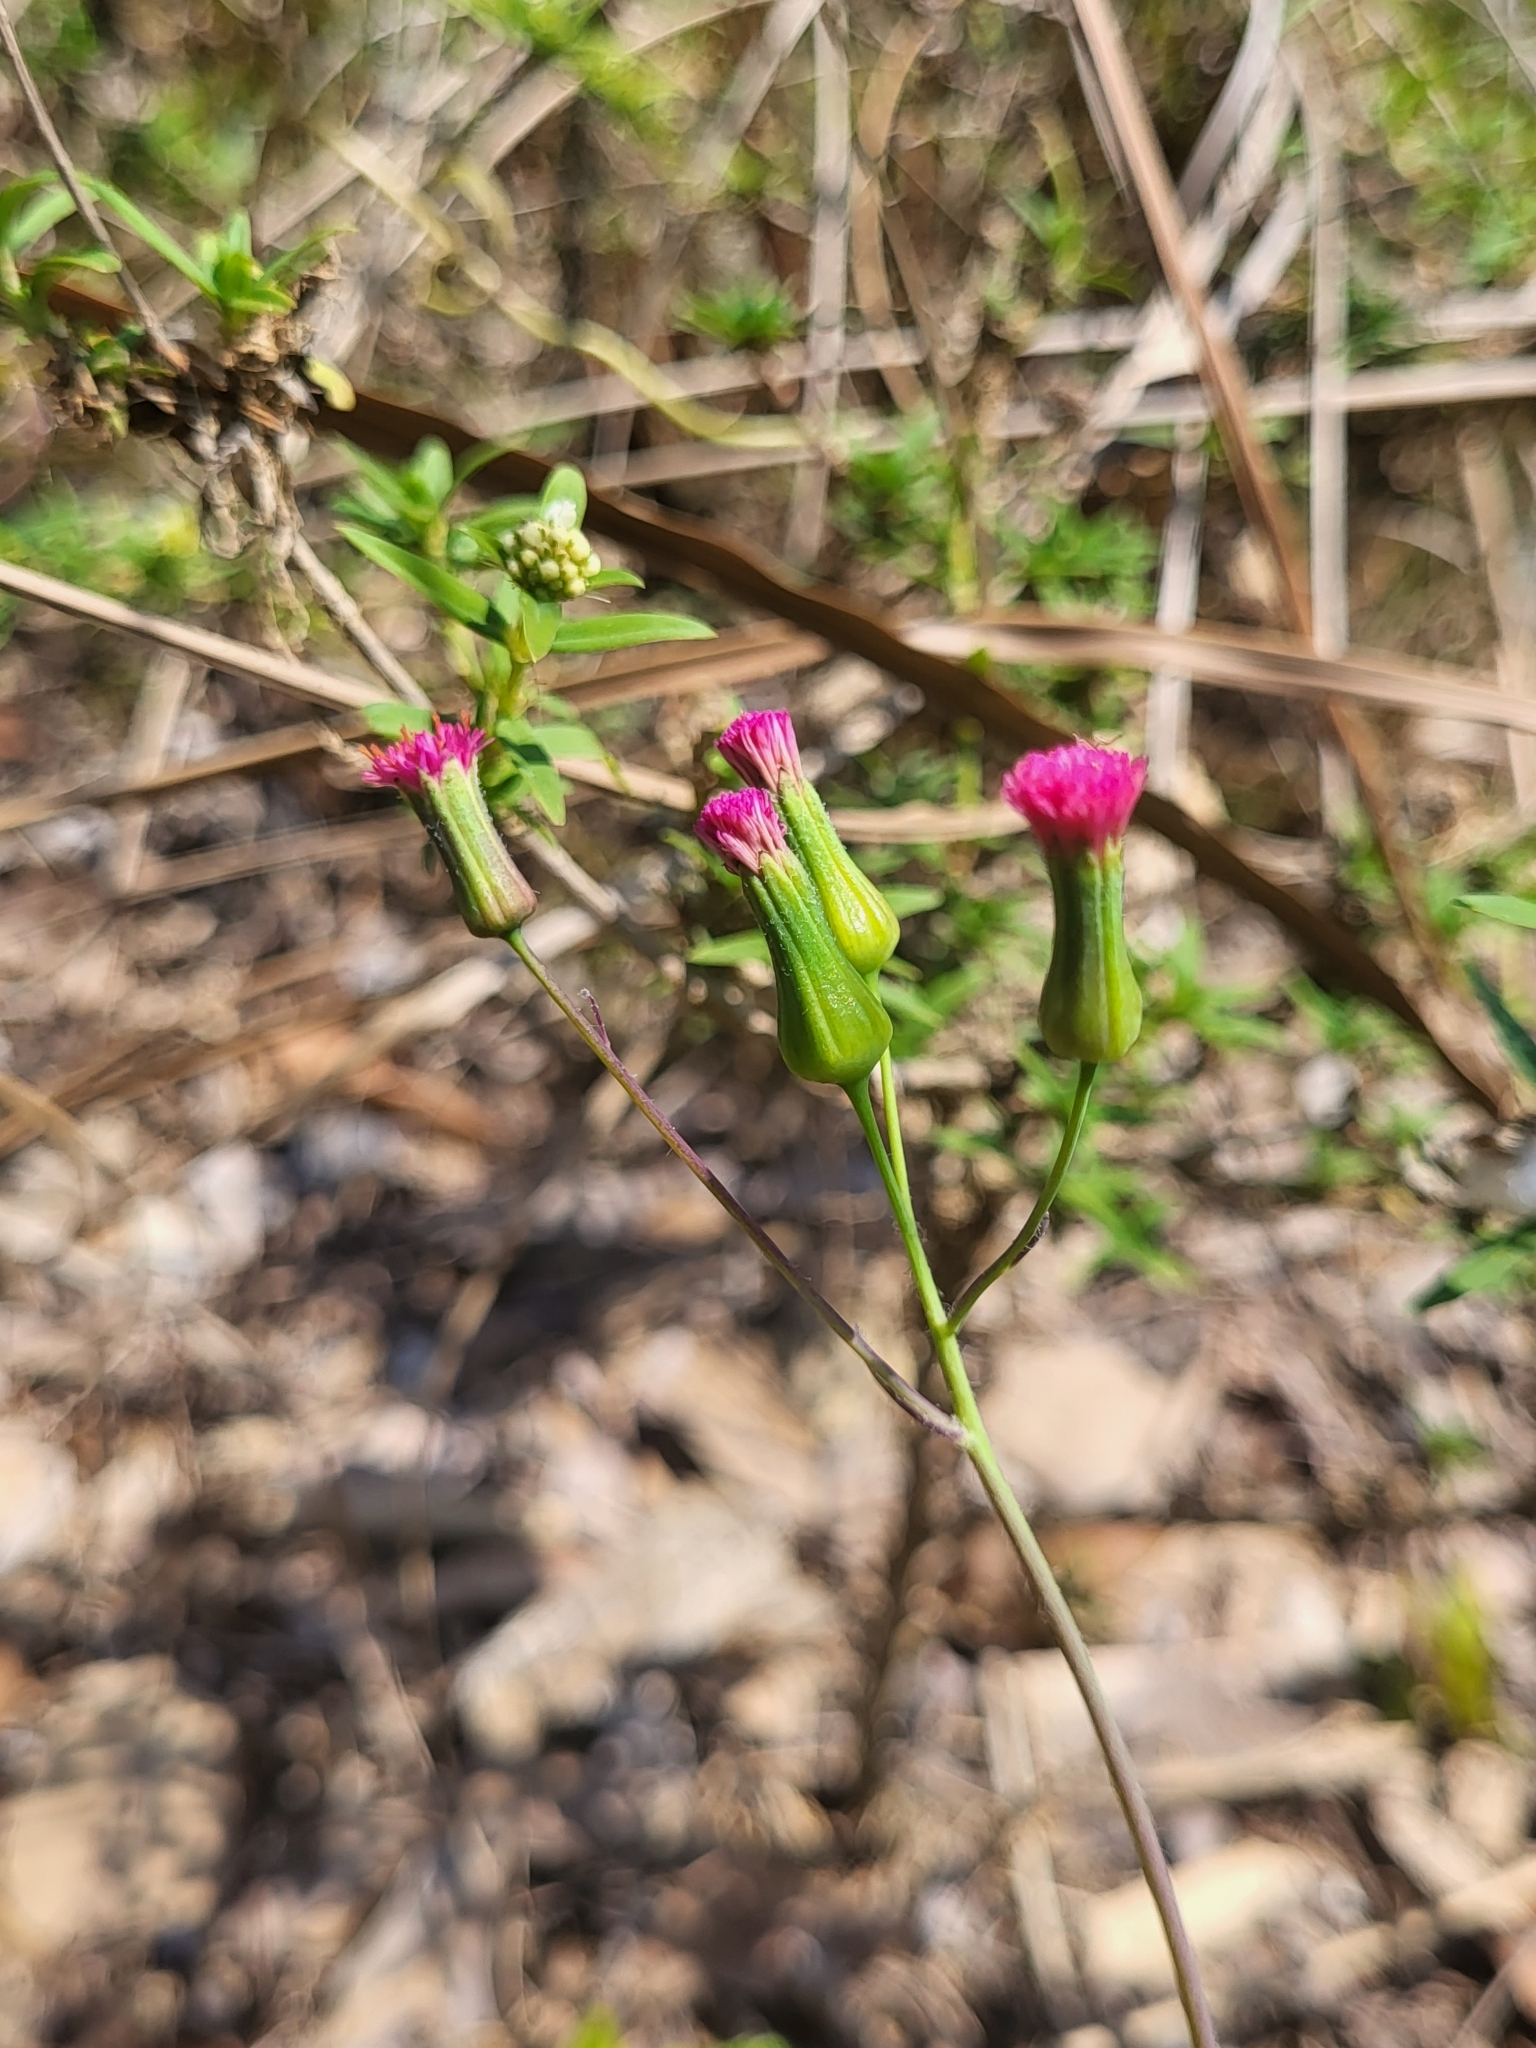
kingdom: Plantae
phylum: Tracheophyta
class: Magnoliopsida
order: Asterales
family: Asteraceae
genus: Emilia
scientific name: Emilia fosbergii
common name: Florida tasselflower
